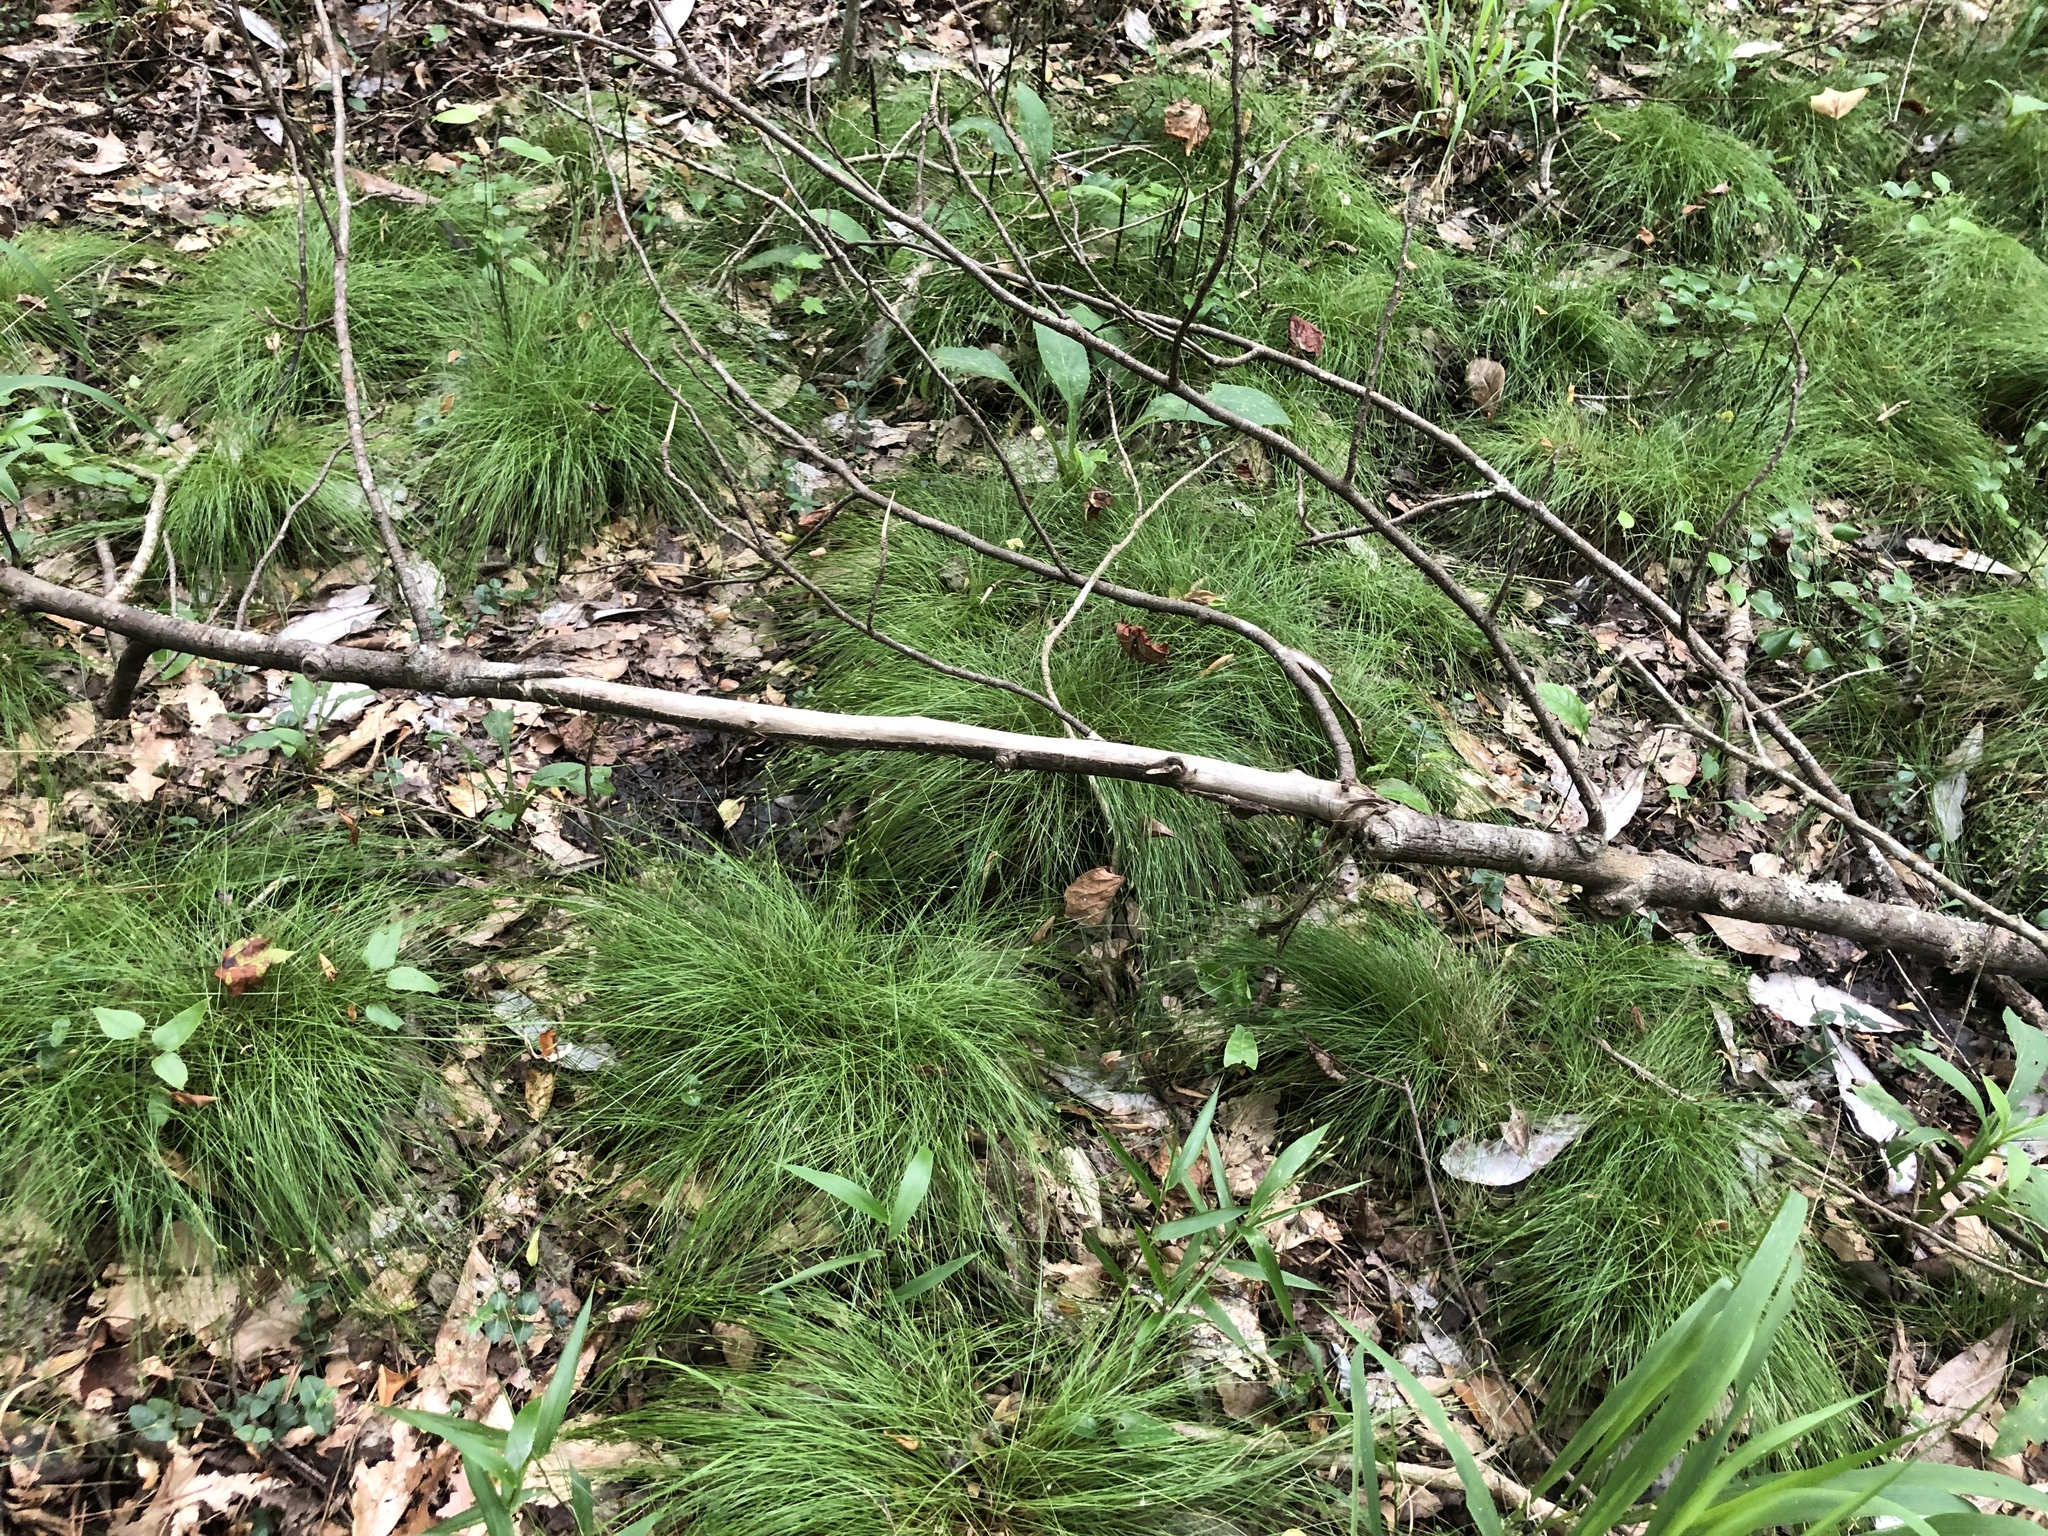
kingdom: Plantae
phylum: Tracheophyta
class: Liliopsida
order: Poales
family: Cyperaceae
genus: Carex
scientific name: Carex leptalea
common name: Bristly-stalked sedge
